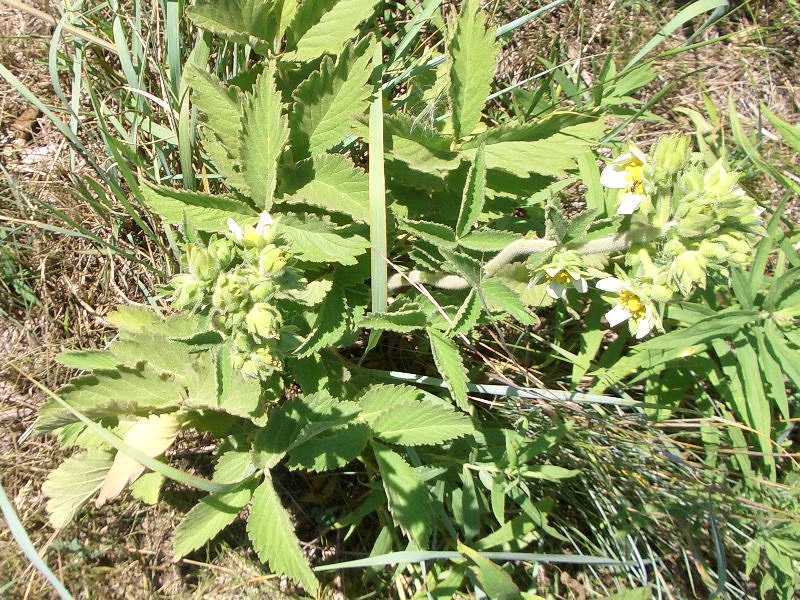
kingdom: Plantae
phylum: Tracheophyta
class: Magnoliopsida
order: Rosales
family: Rosaceae
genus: Drymocallis
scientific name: Drymocallis arguta
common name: Tall cinquefoil
